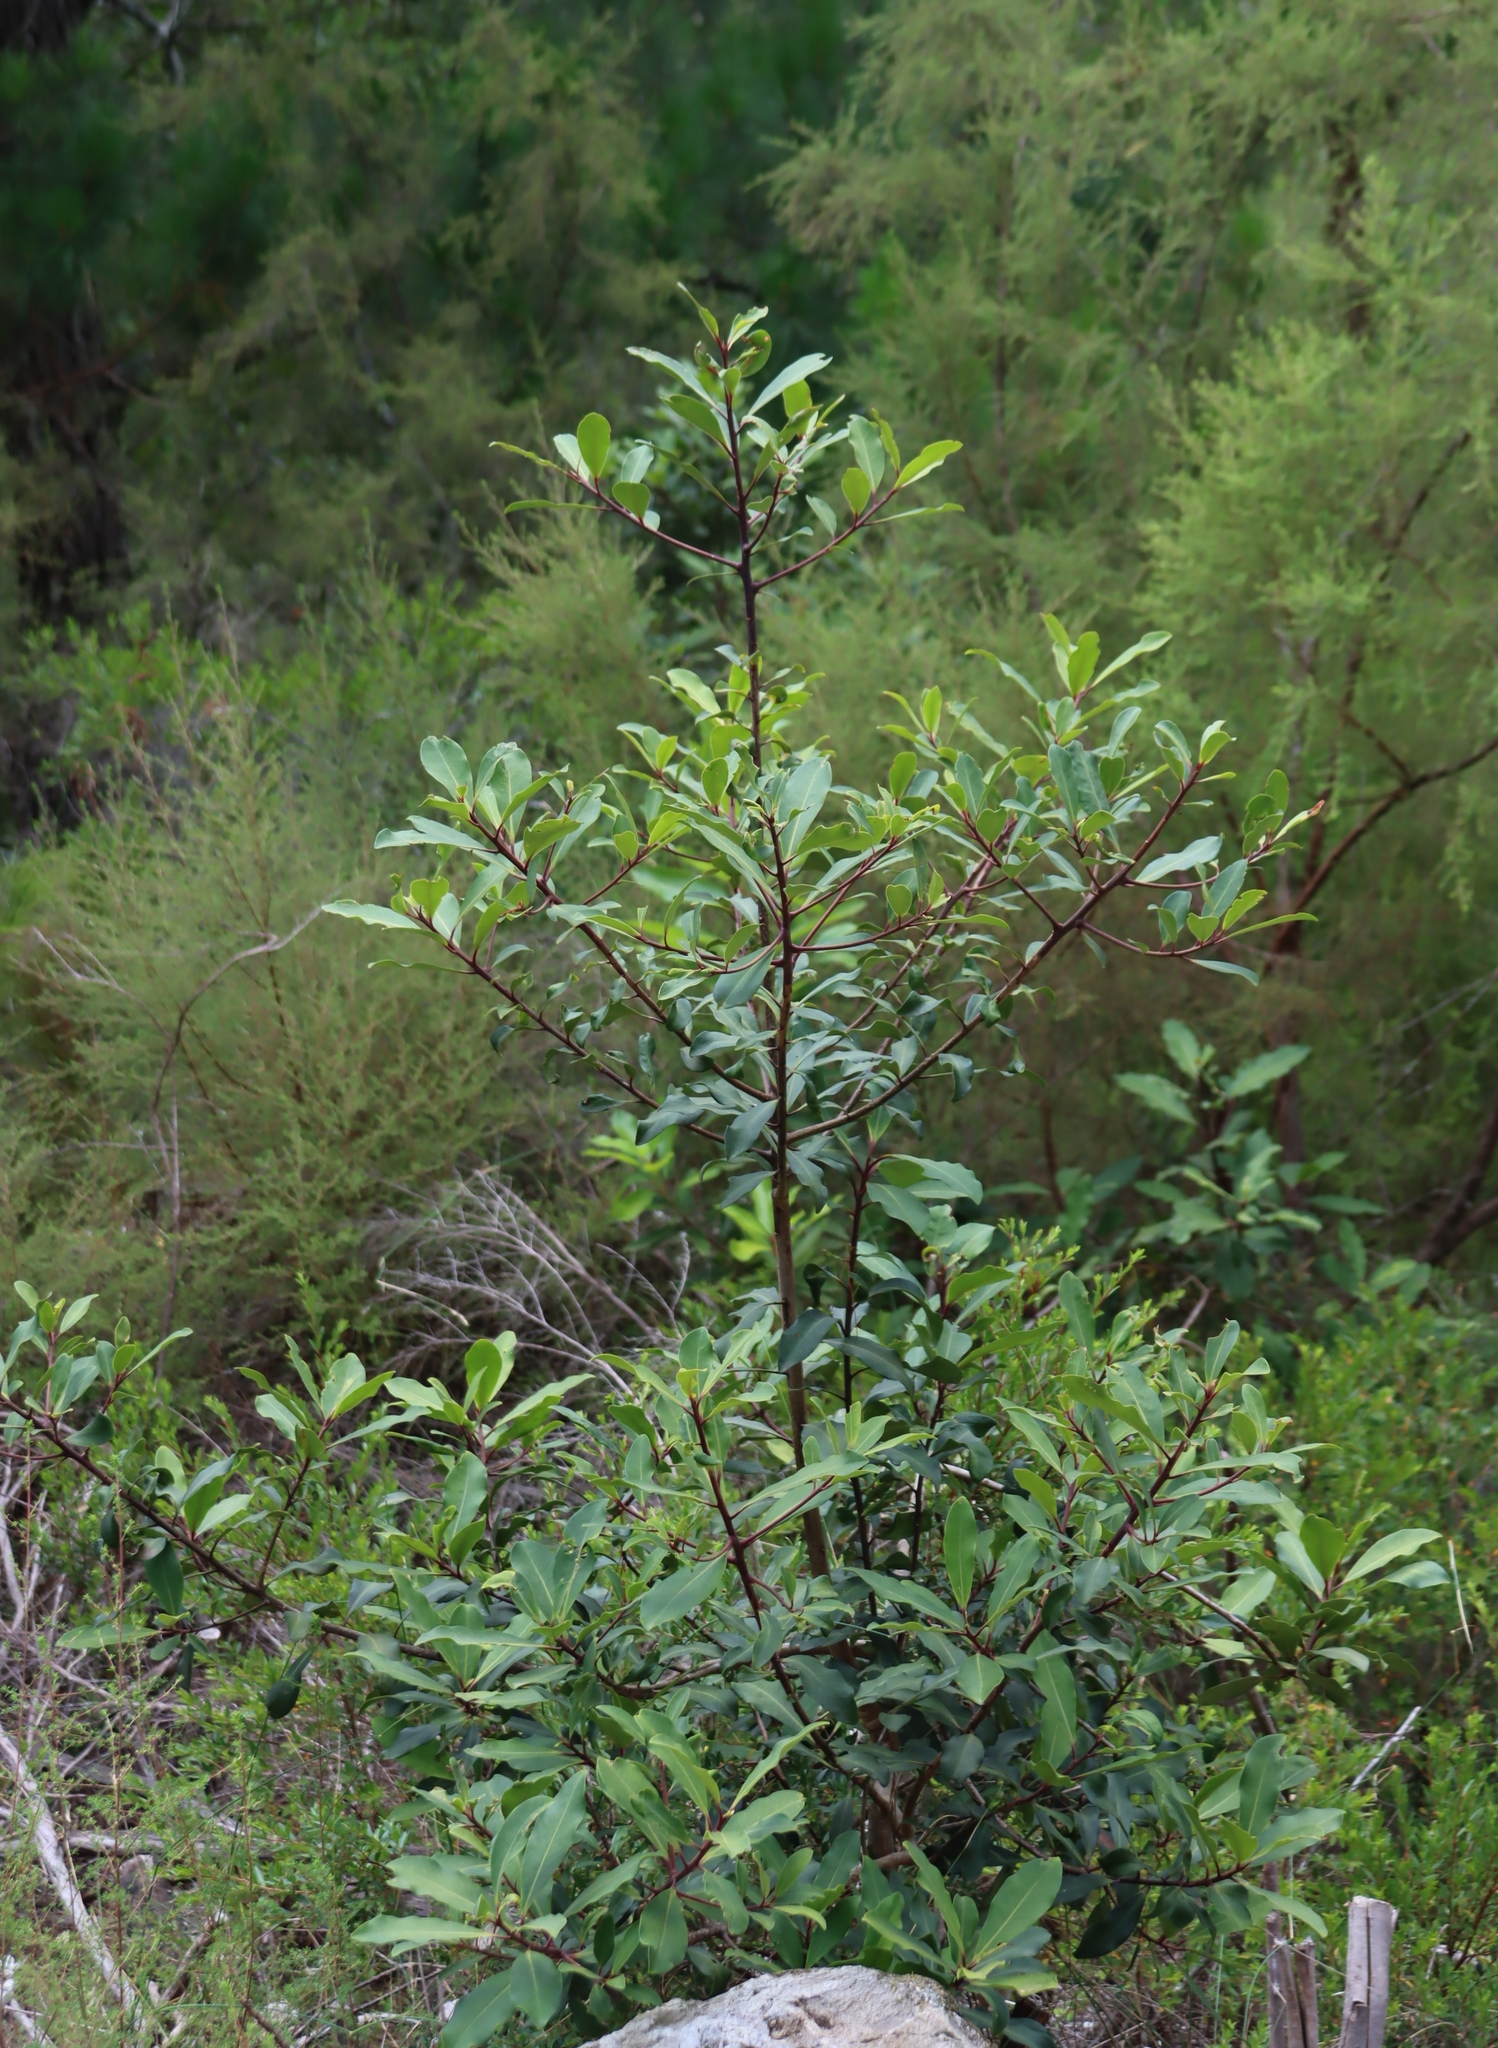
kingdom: Plantae
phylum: Tracheophyta
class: Magnoliopsida
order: Ericales
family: Primulaceae
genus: Myrsine
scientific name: Myrsine melanophloeos
